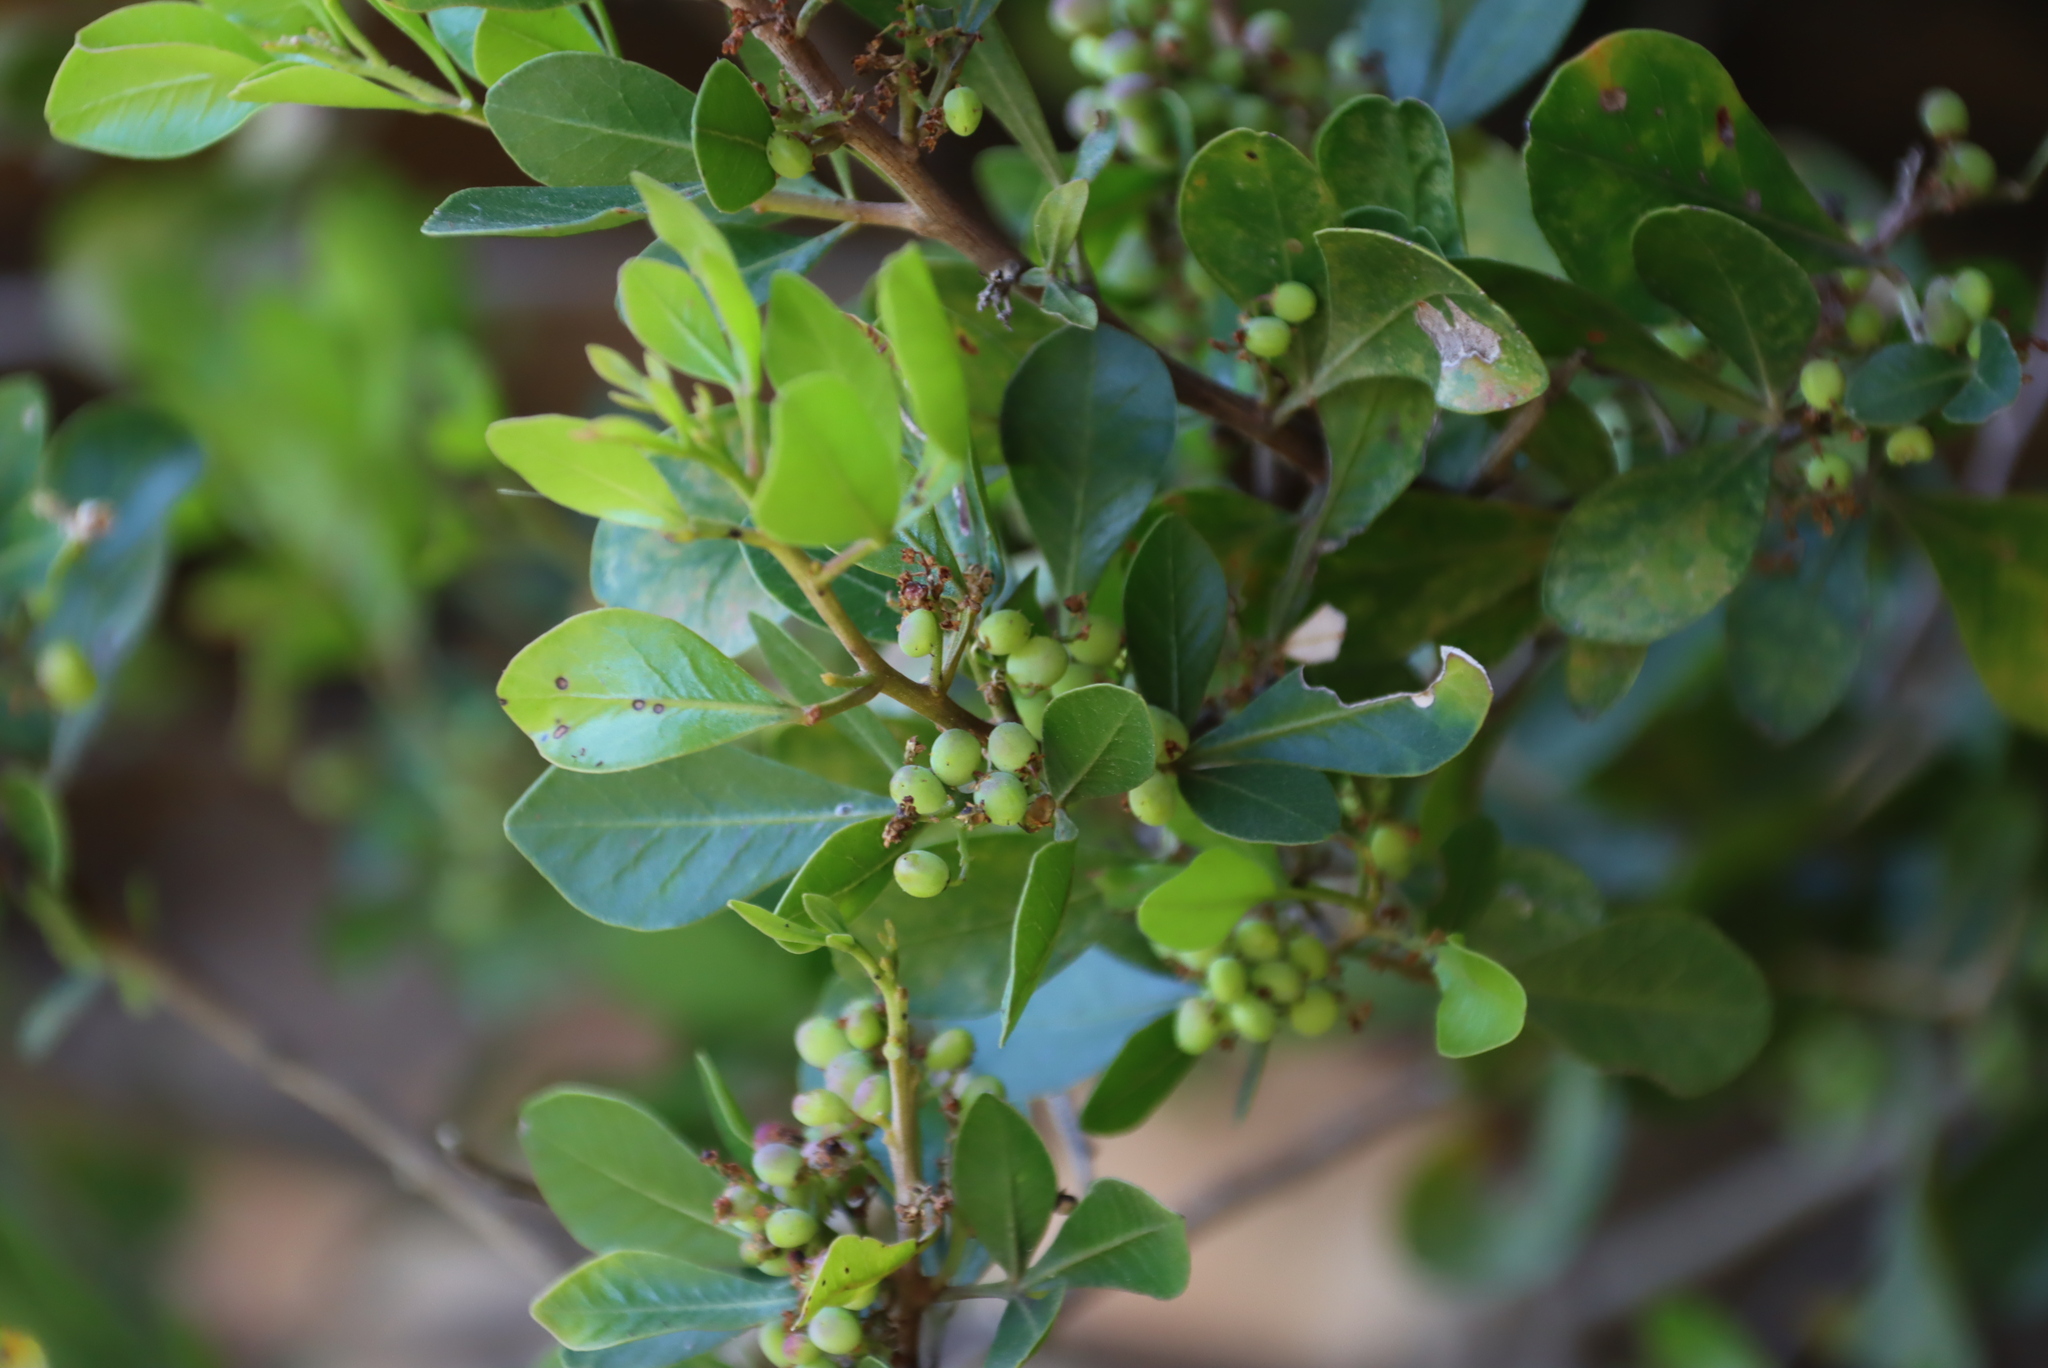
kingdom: Plantae
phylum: Tracheophyta
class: Magnoliopsida
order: Sapindales
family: Anacardiaceae
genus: Searsia
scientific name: Searsia lucida
